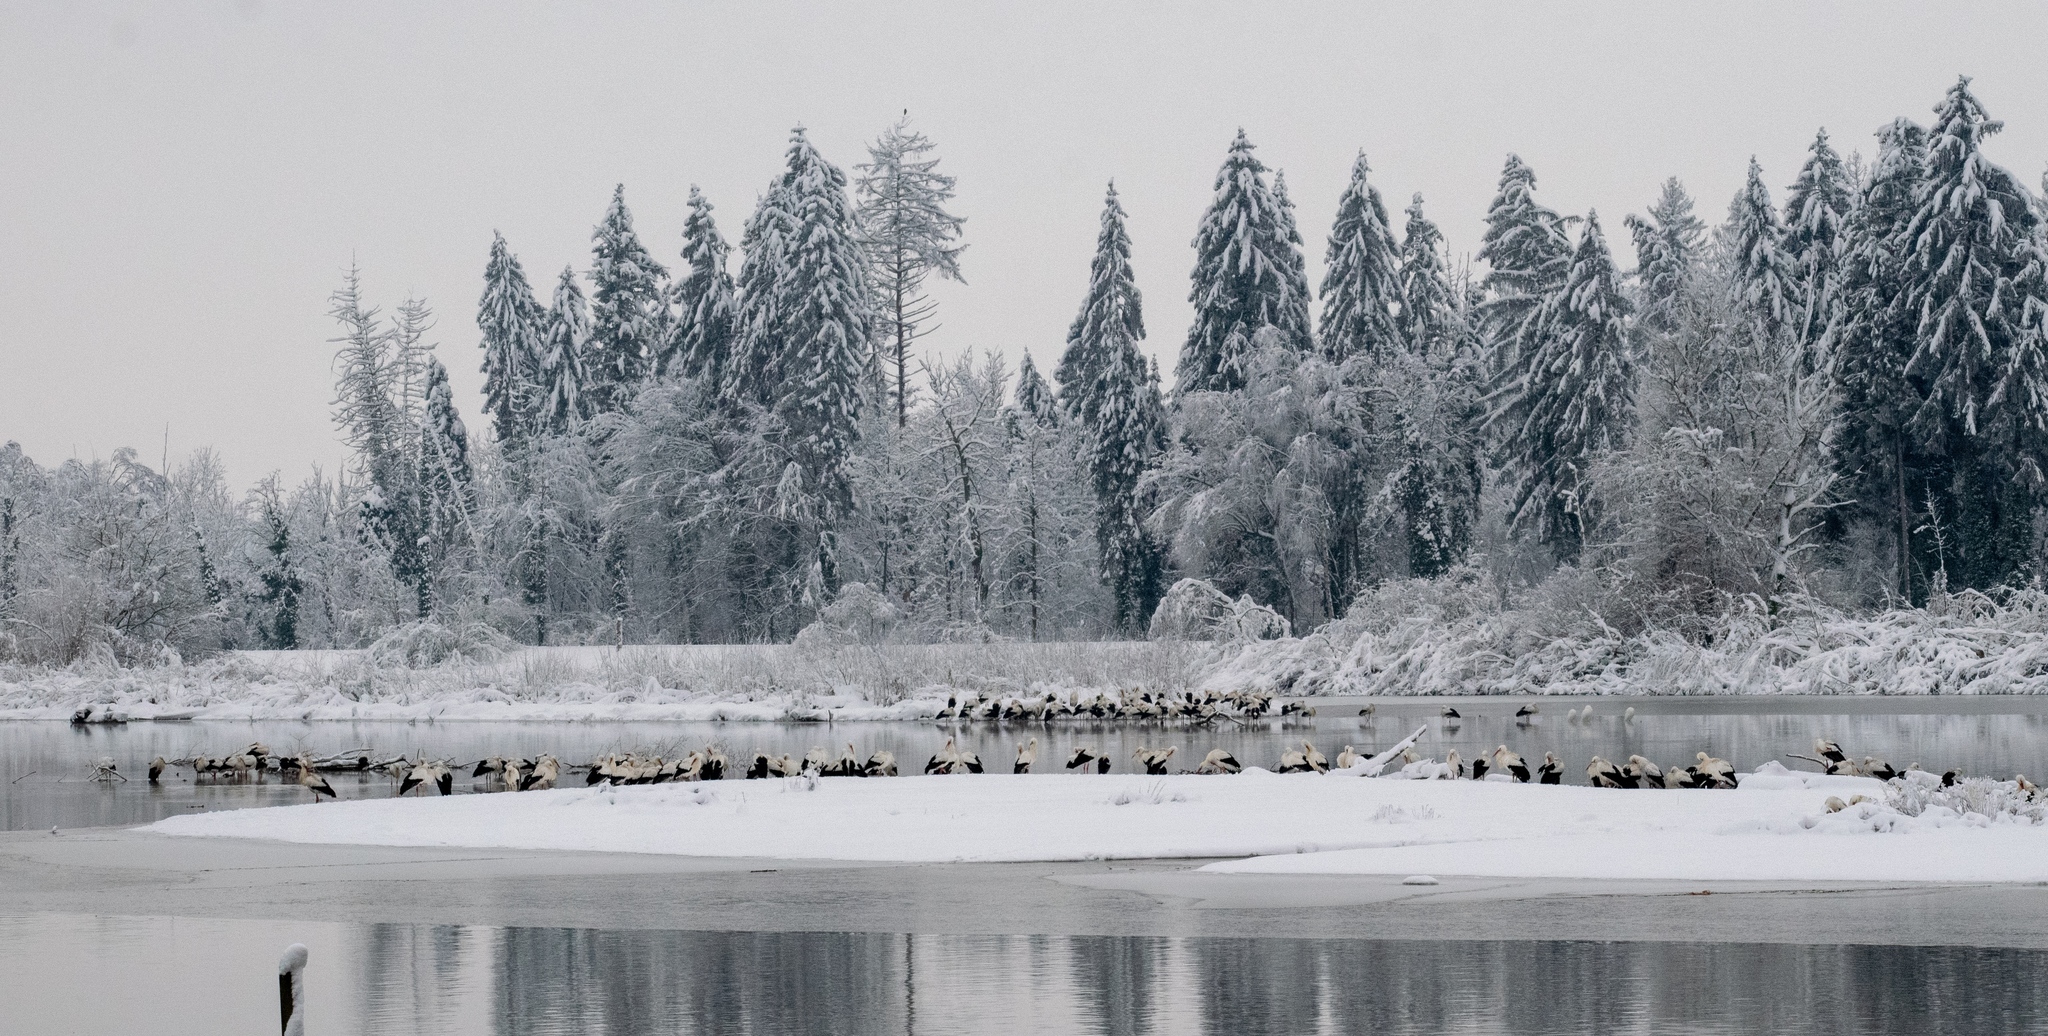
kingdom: Animalia
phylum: Chordata
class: Aves
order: Ciconiiformes
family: Ciconiidae
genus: Ciconia
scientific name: Ciconia ciconia
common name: White stork
